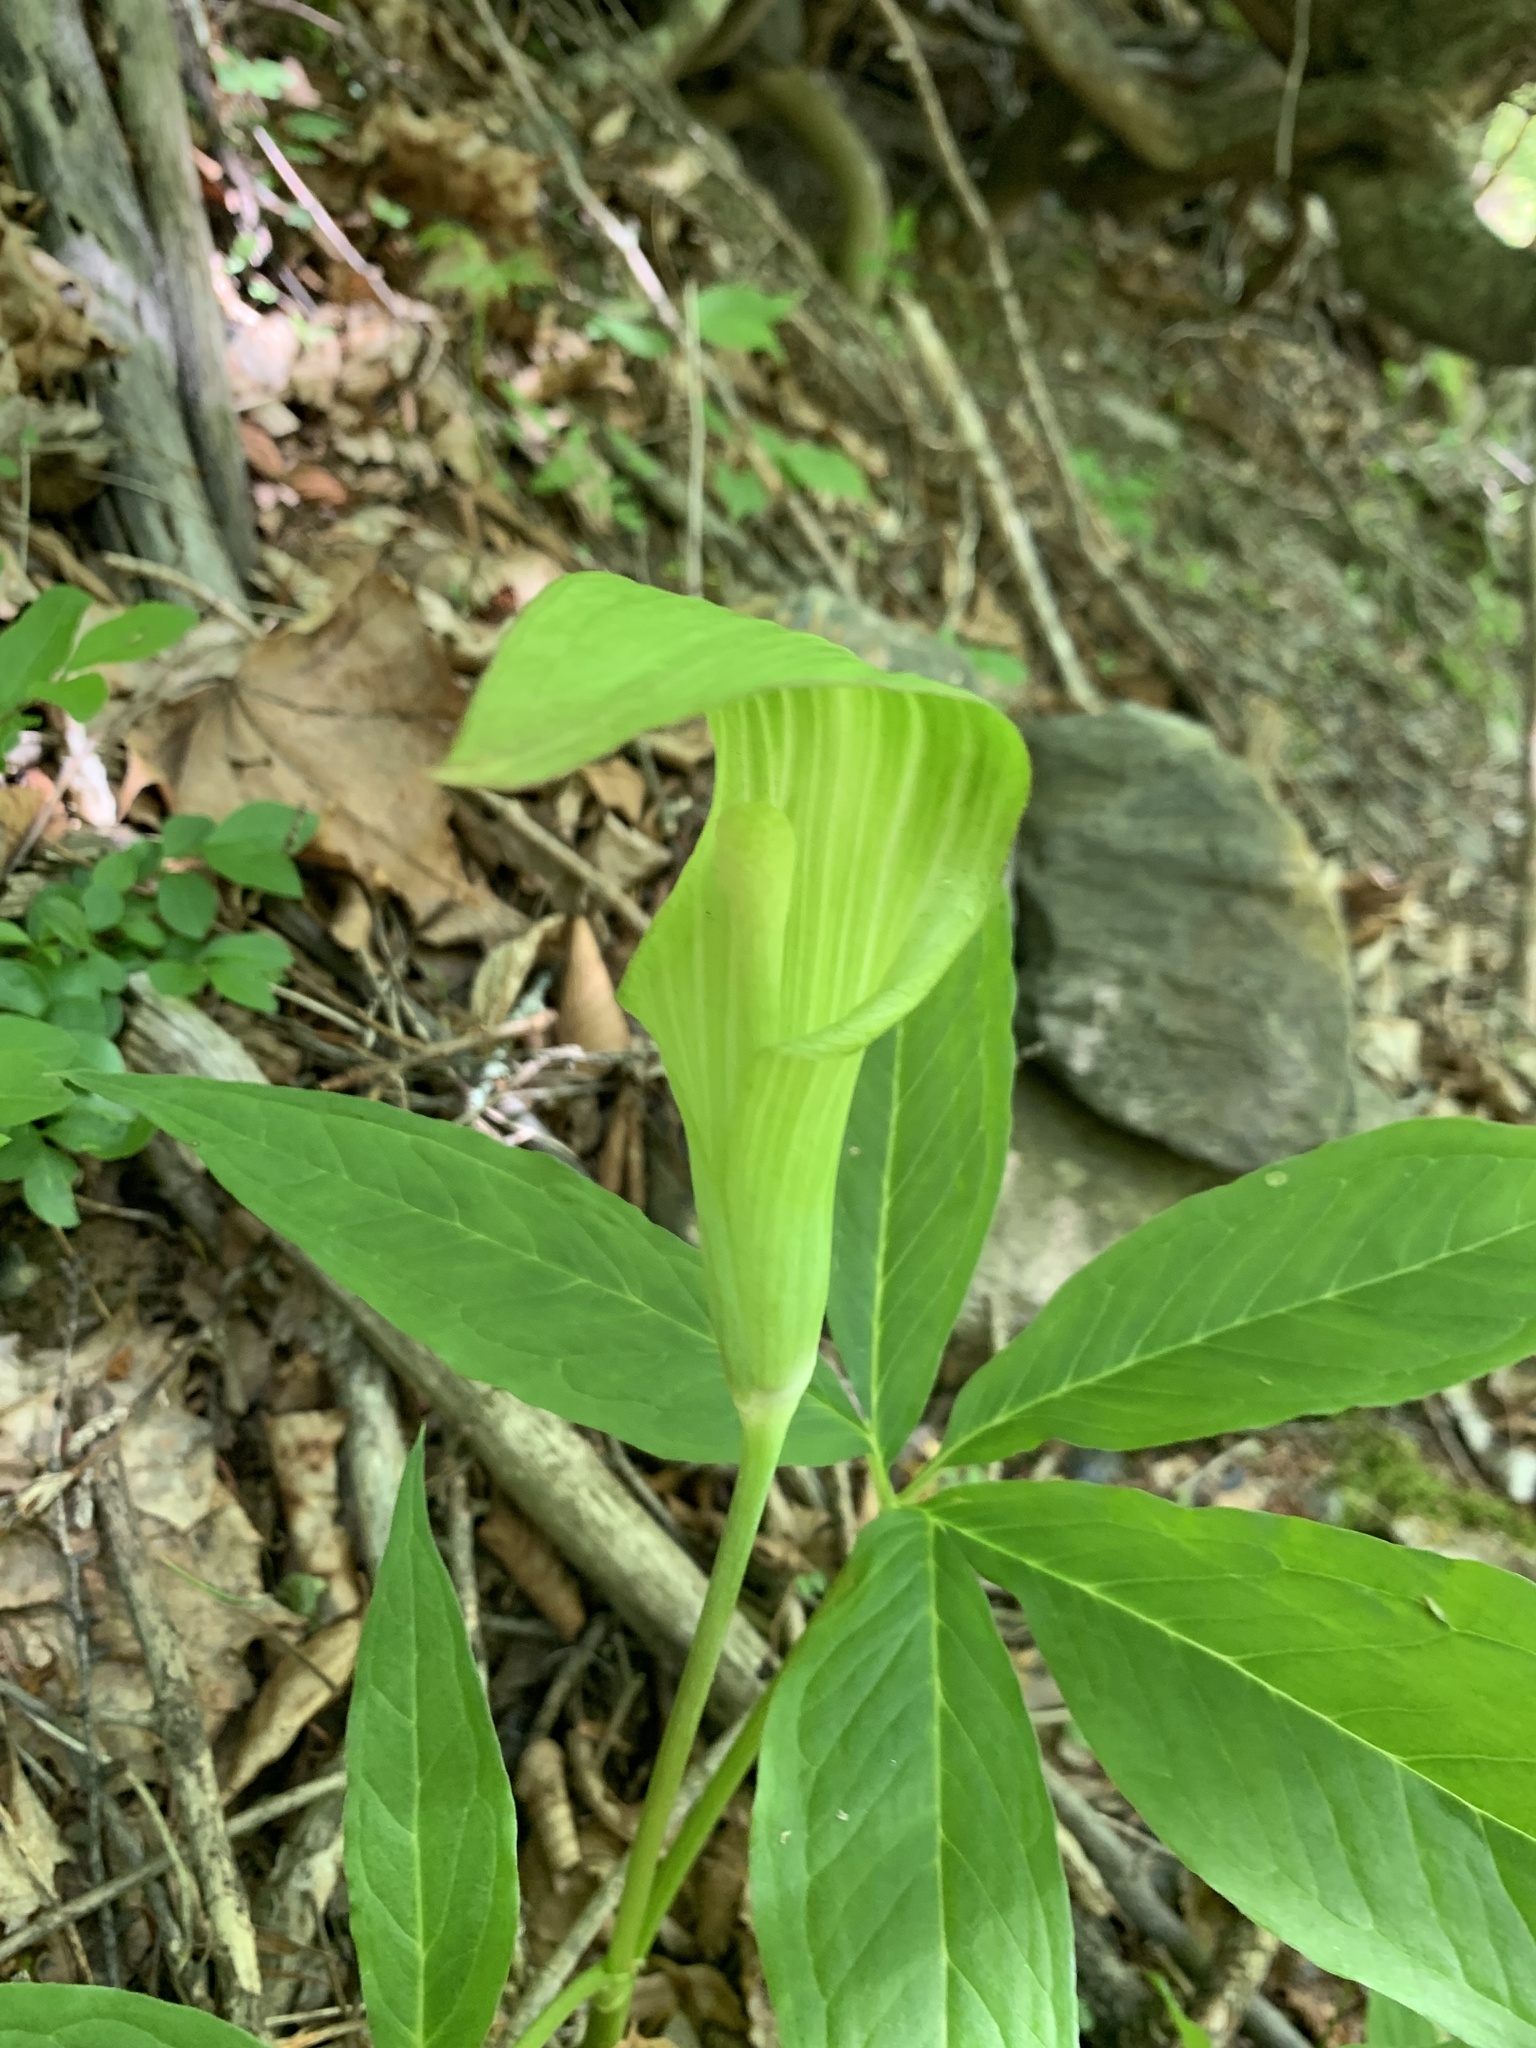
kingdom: Plantae
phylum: Tracheophyta
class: Liliopsida
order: Alismatales
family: Araceae
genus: Arisaema
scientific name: Arisaema nikoense
